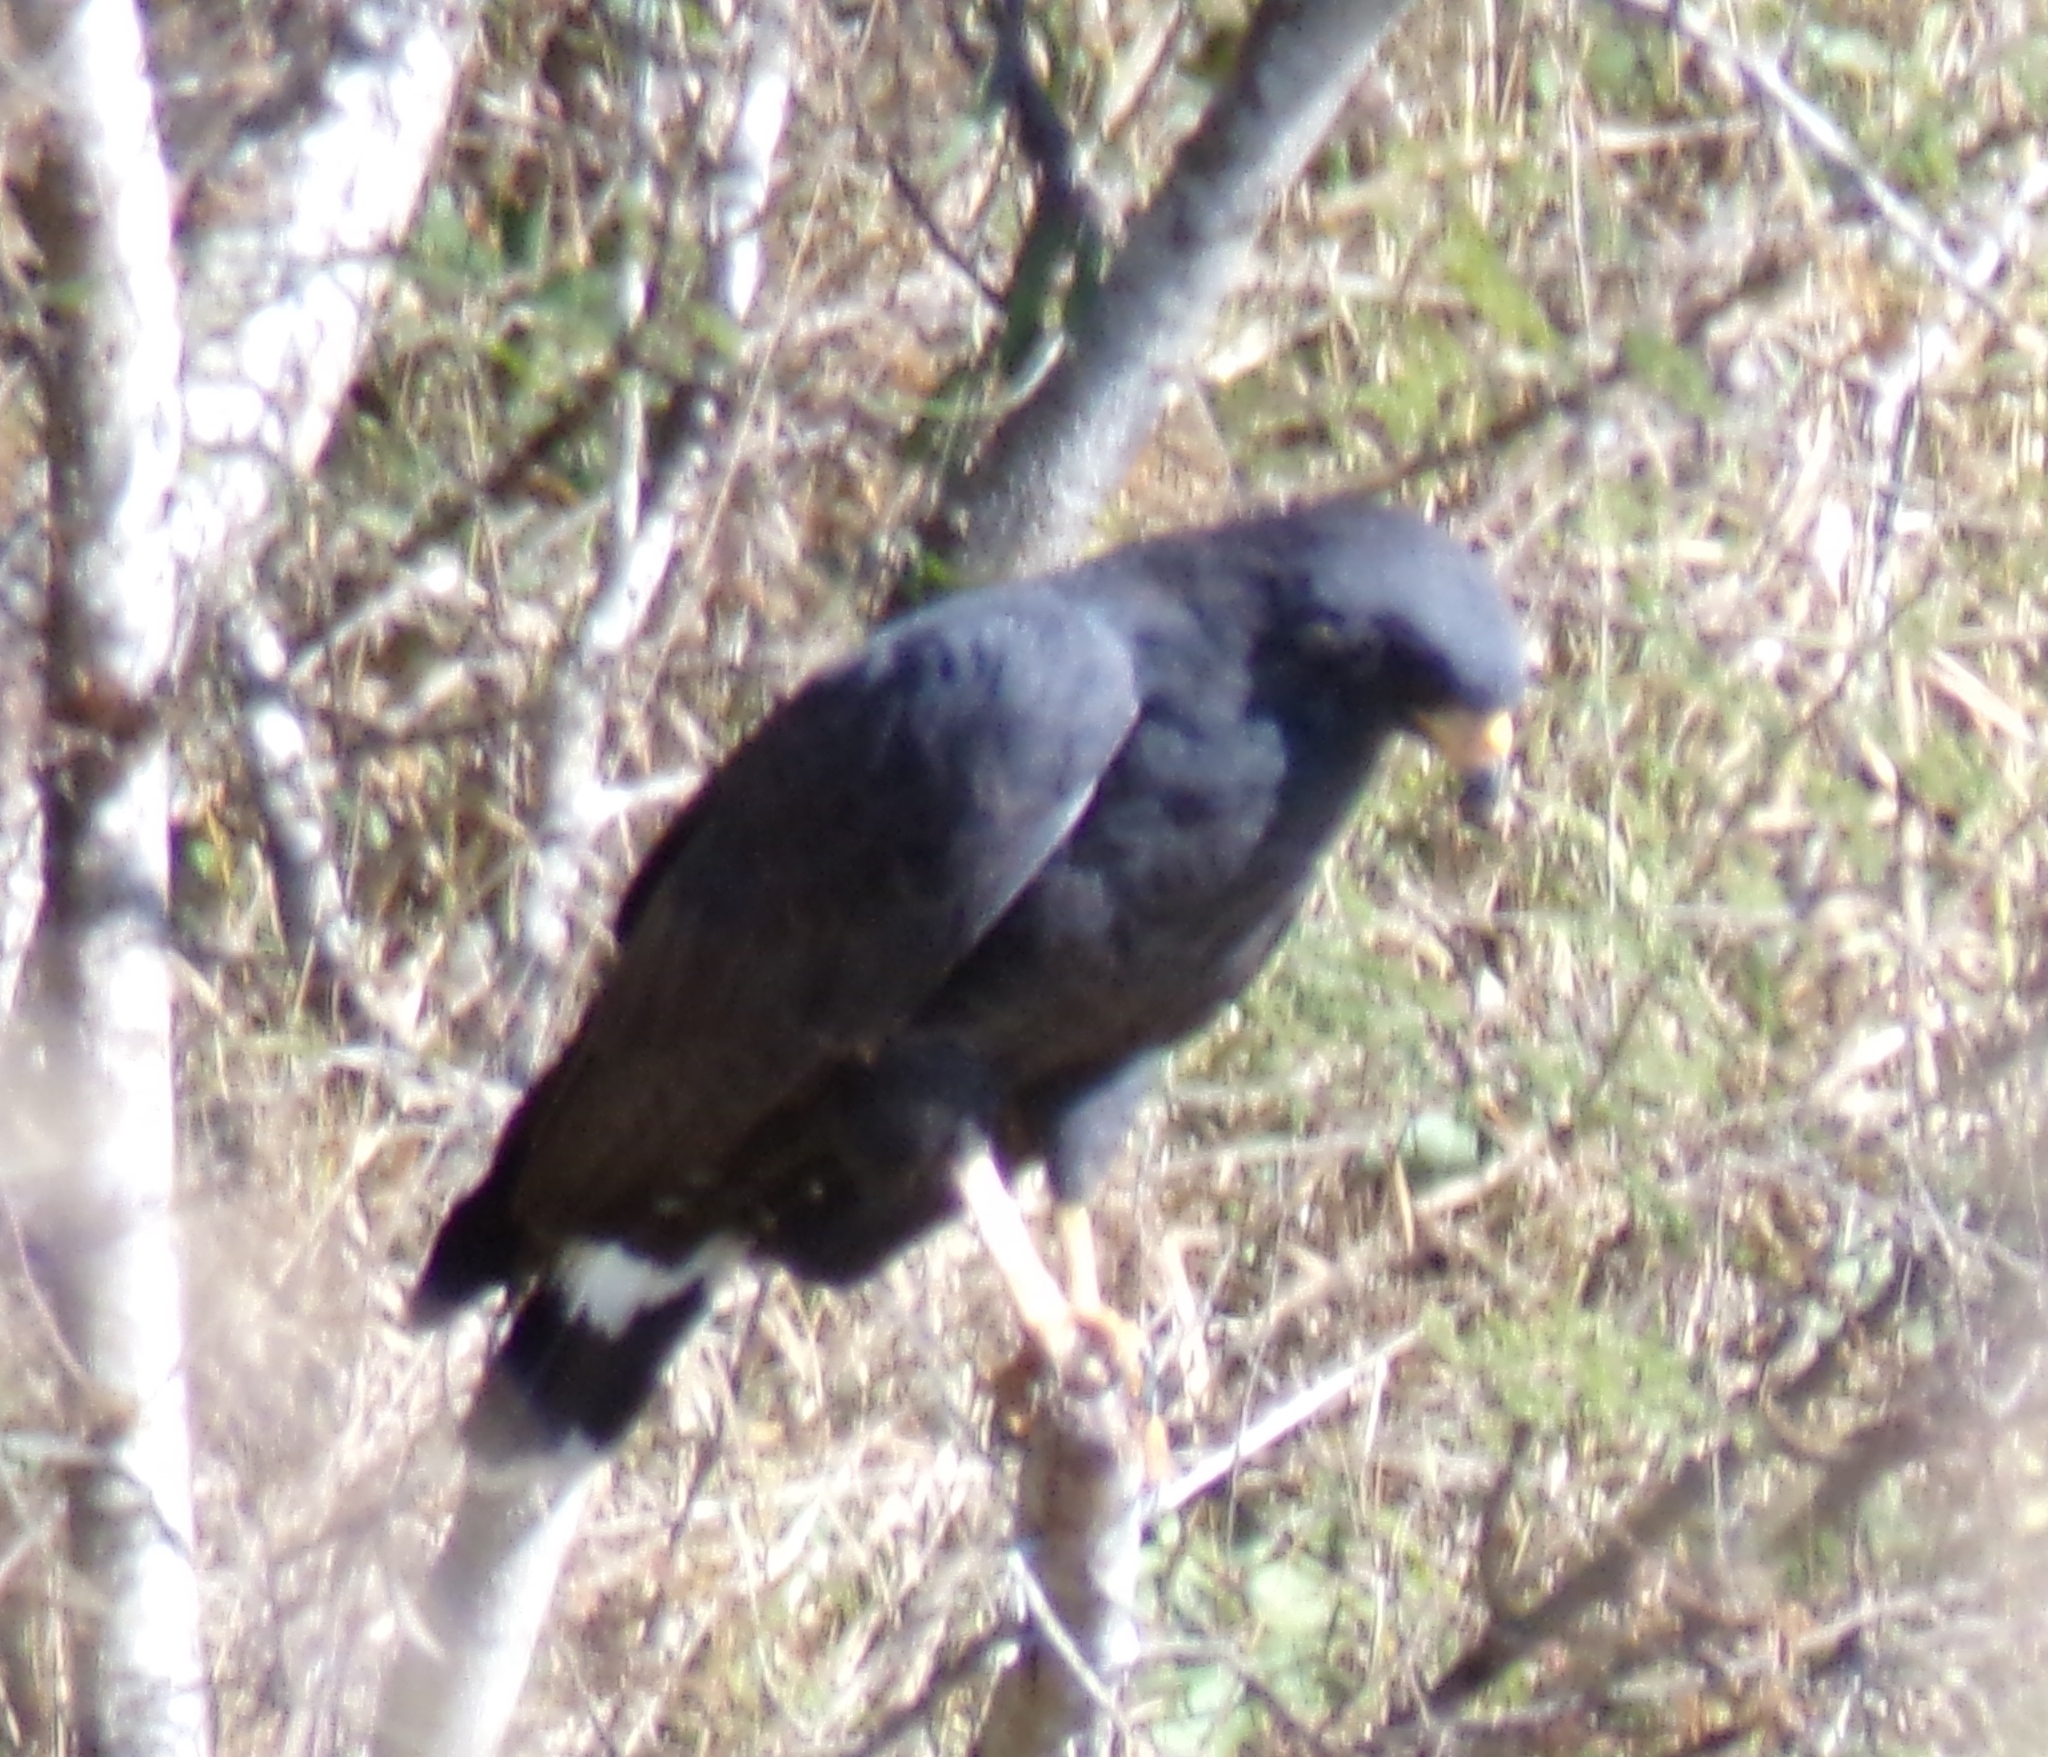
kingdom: Animalia
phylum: Chordata
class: Aves
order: Accipitriformes
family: Accipitridae
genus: Buteogallus
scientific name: Buteogallus anthracinus
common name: Common black hawk
